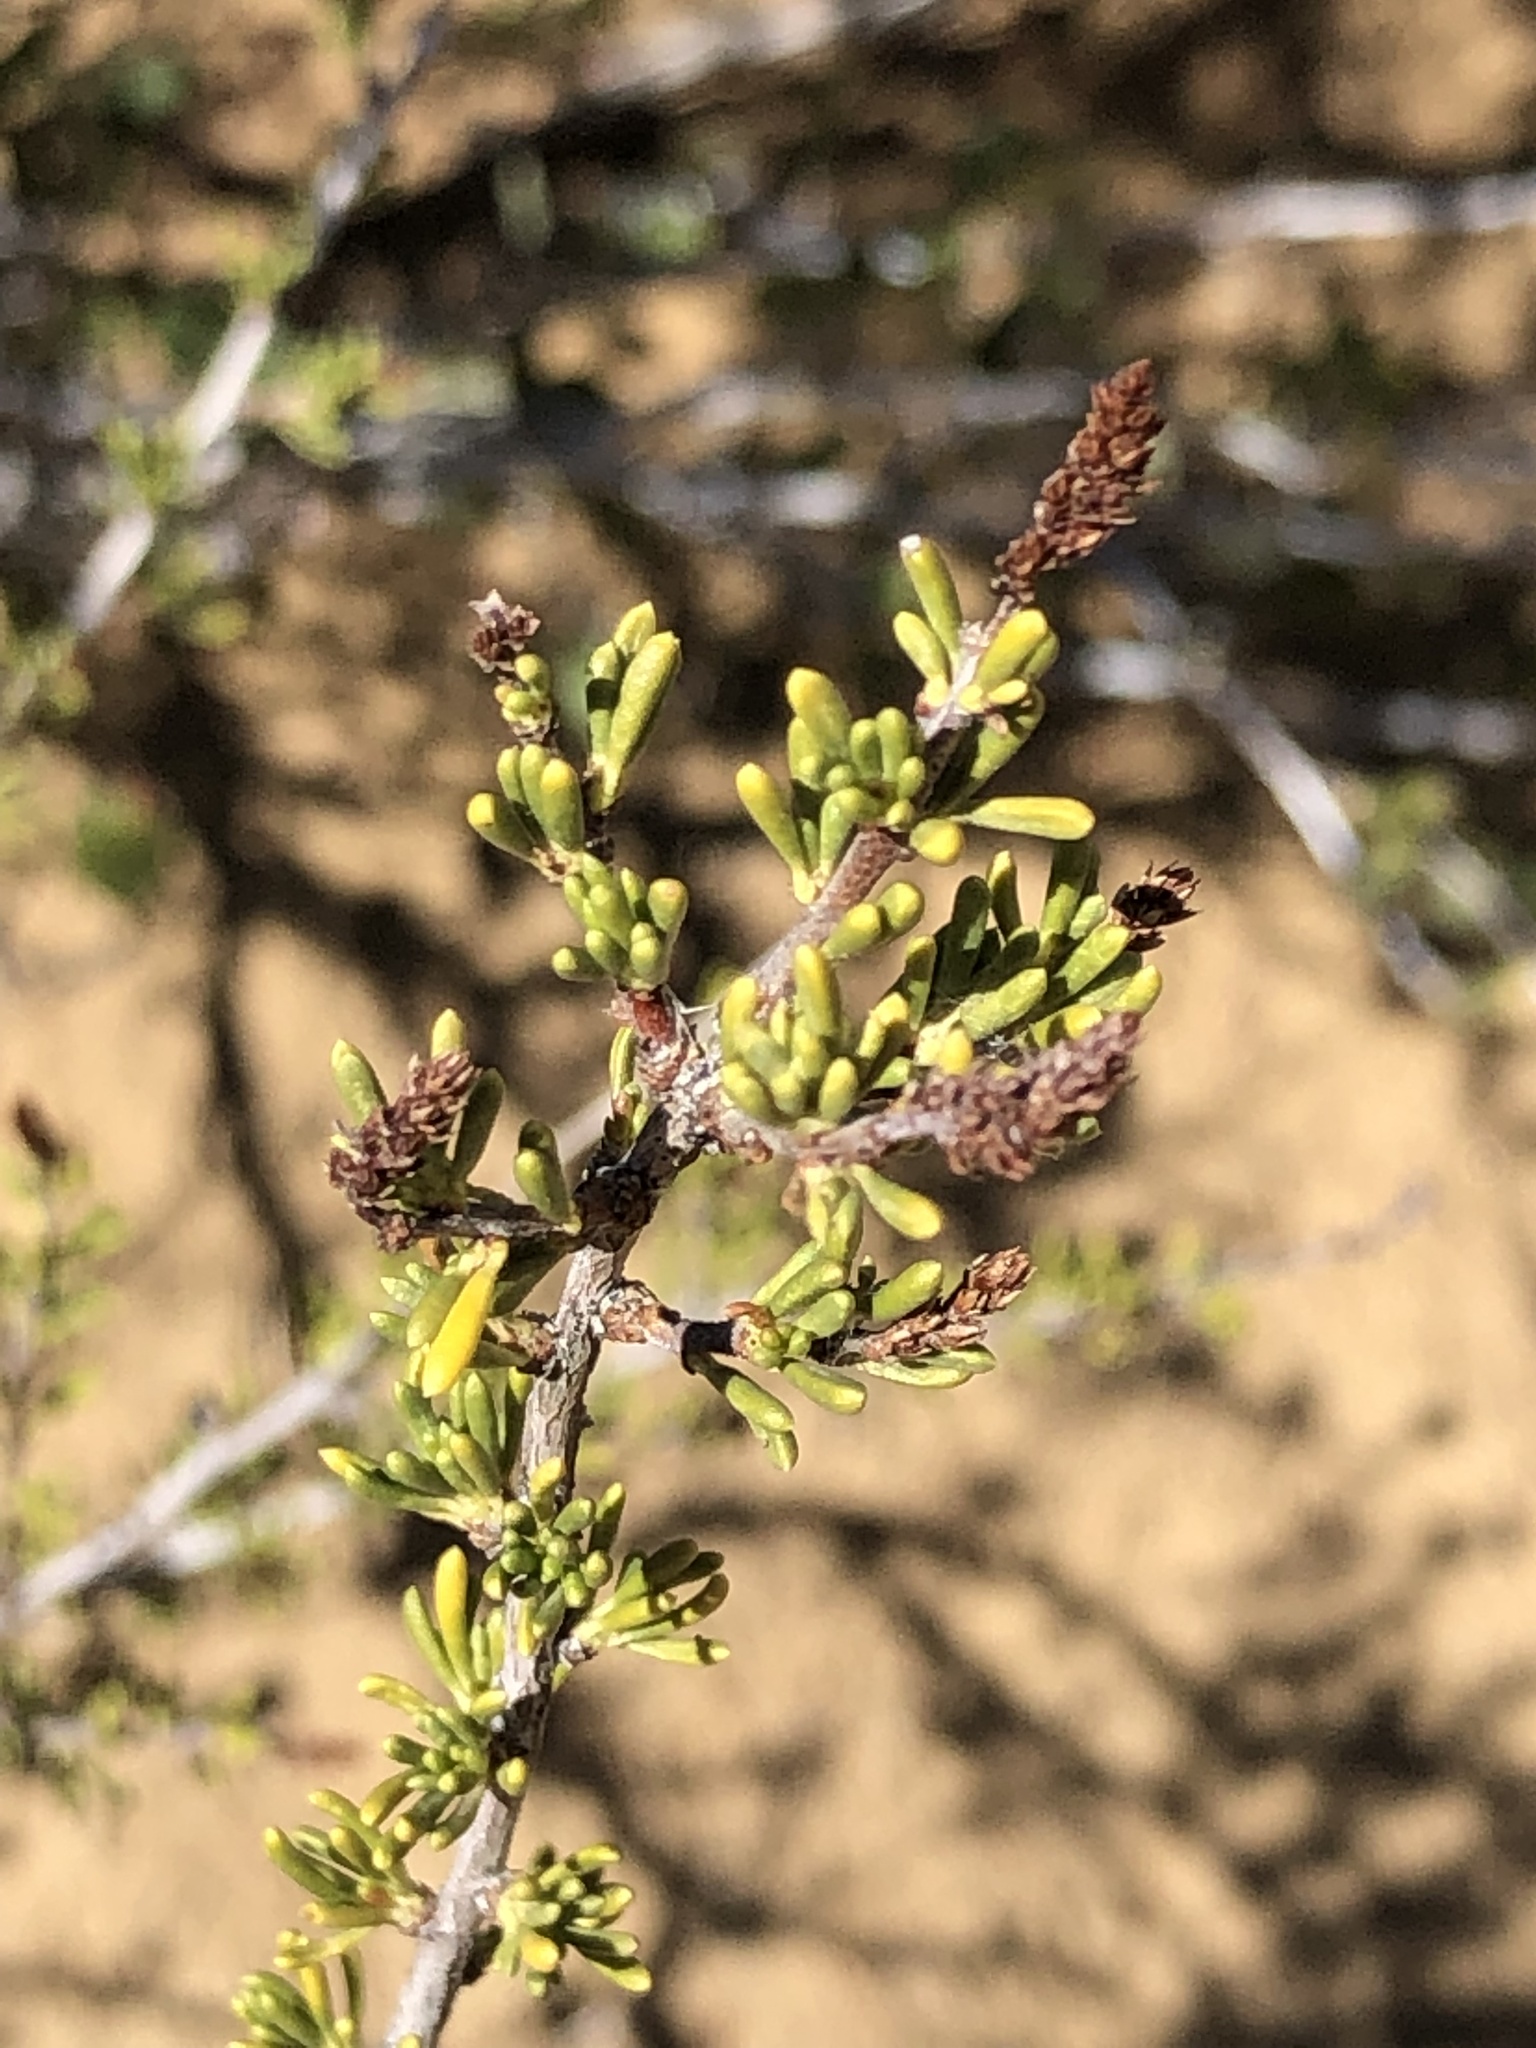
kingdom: Plantae
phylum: Tracheophyta
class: Magnoliopsida
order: Rosales
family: Rosaceae
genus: Adenostoma
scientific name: Adenostoma fasciculatum
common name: Chamise
